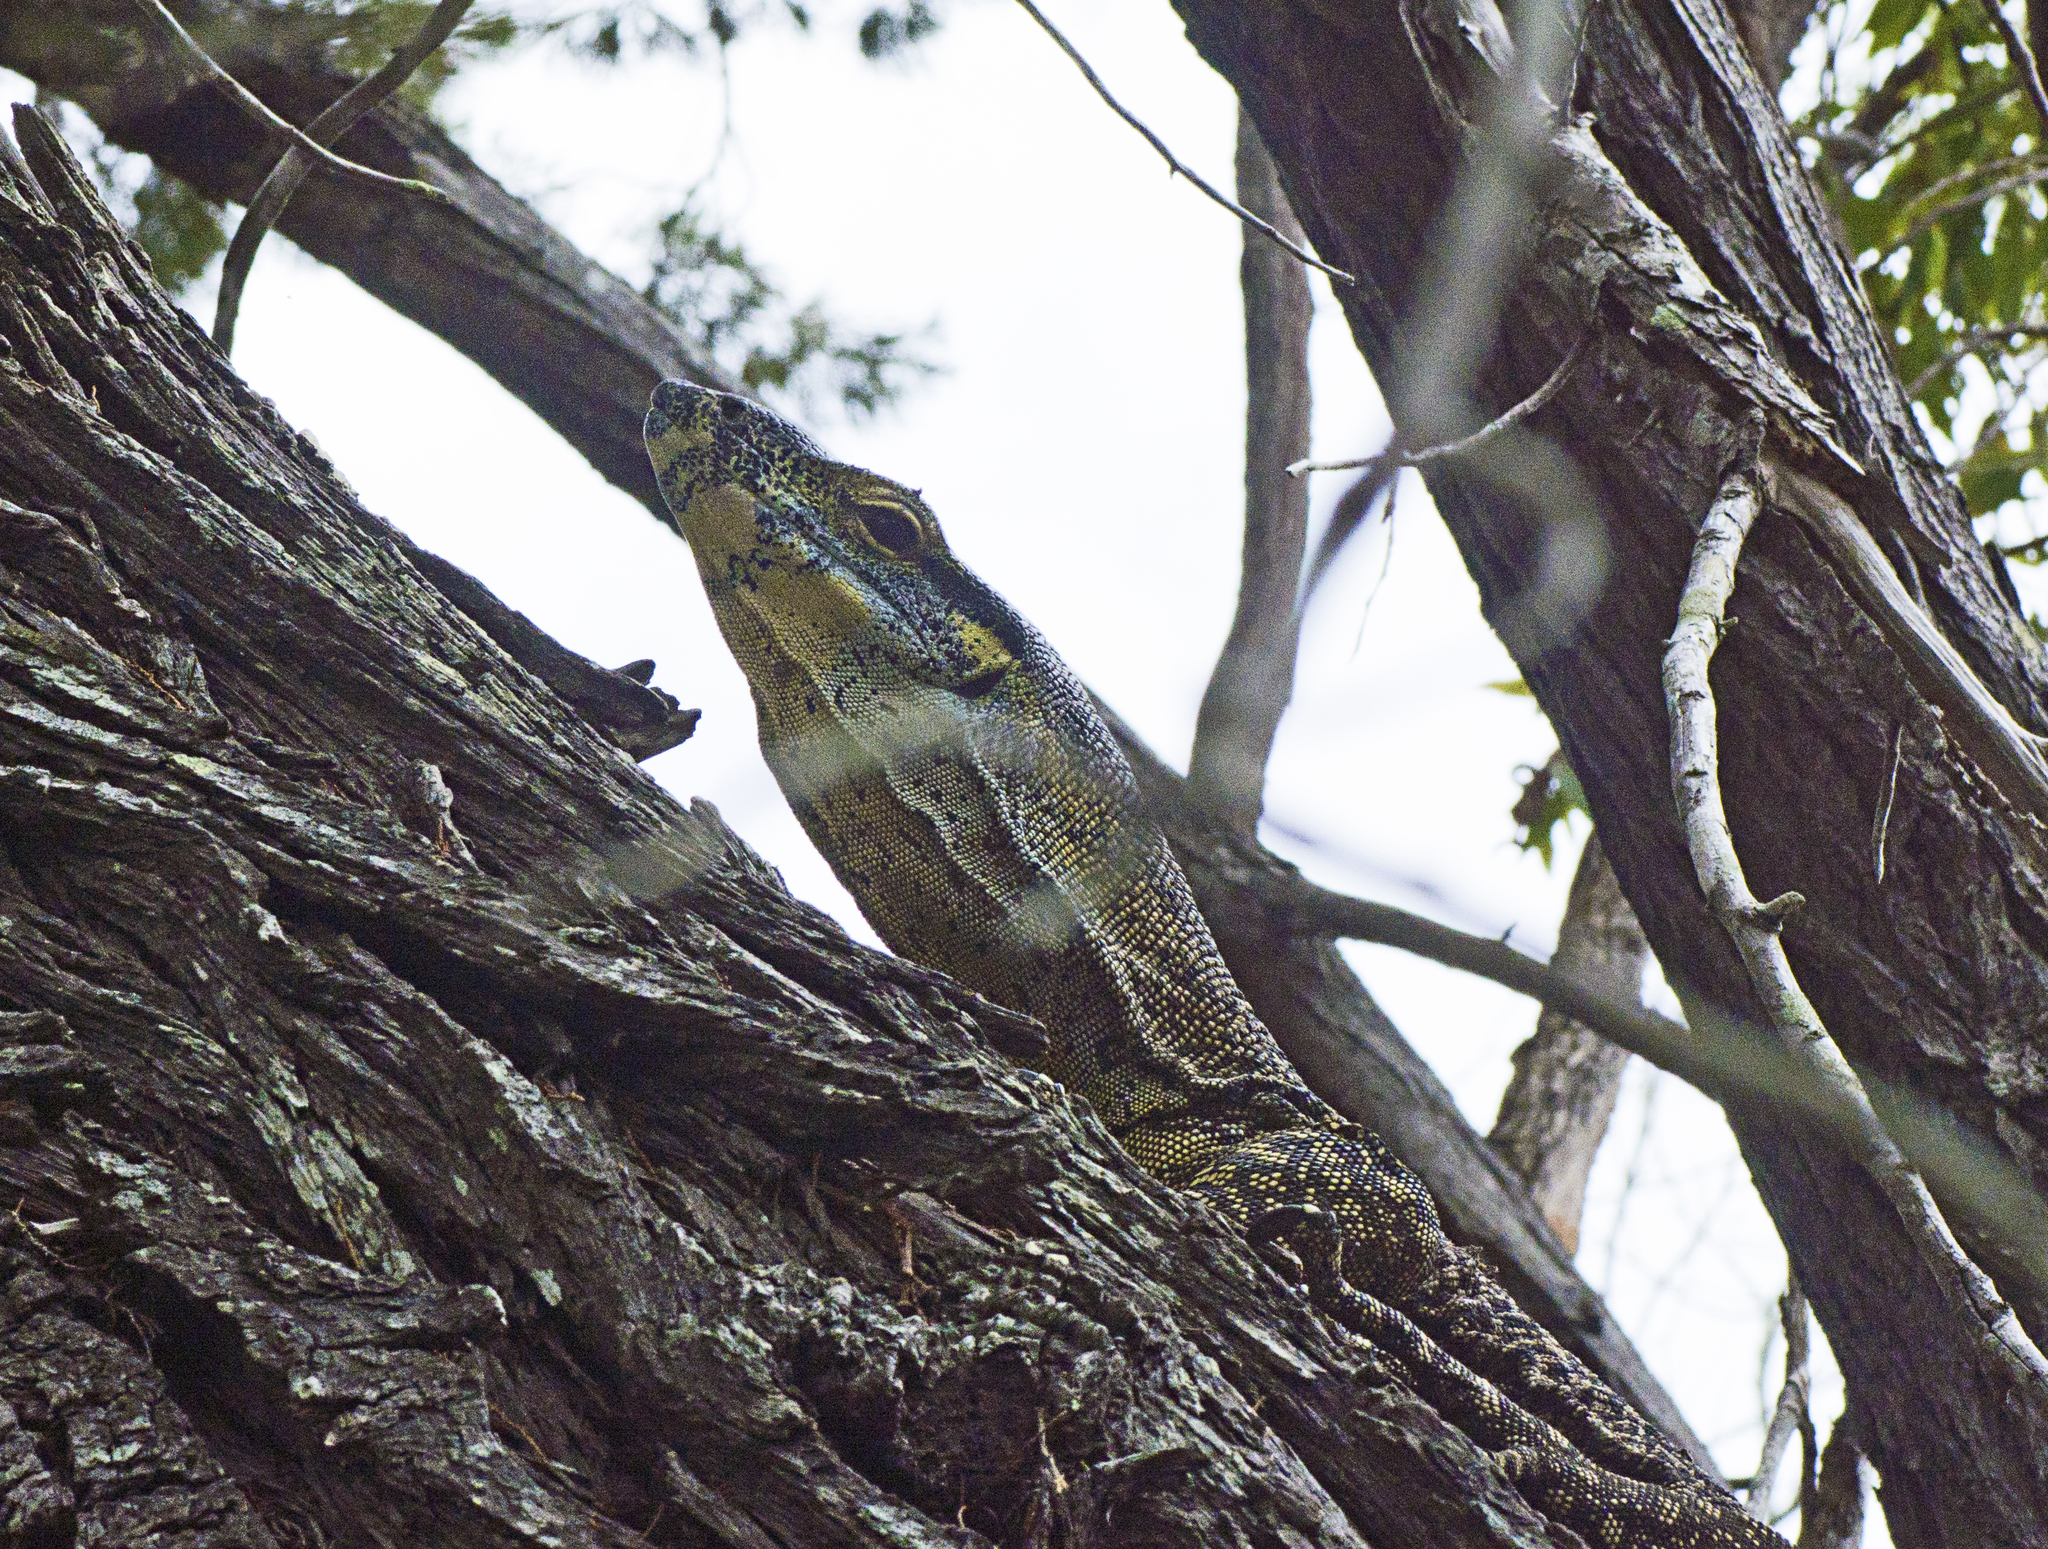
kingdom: Animalia
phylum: Chordata
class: Squamata
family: Varanidae
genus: Varanus
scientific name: Varanus varius
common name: Lace monitor
